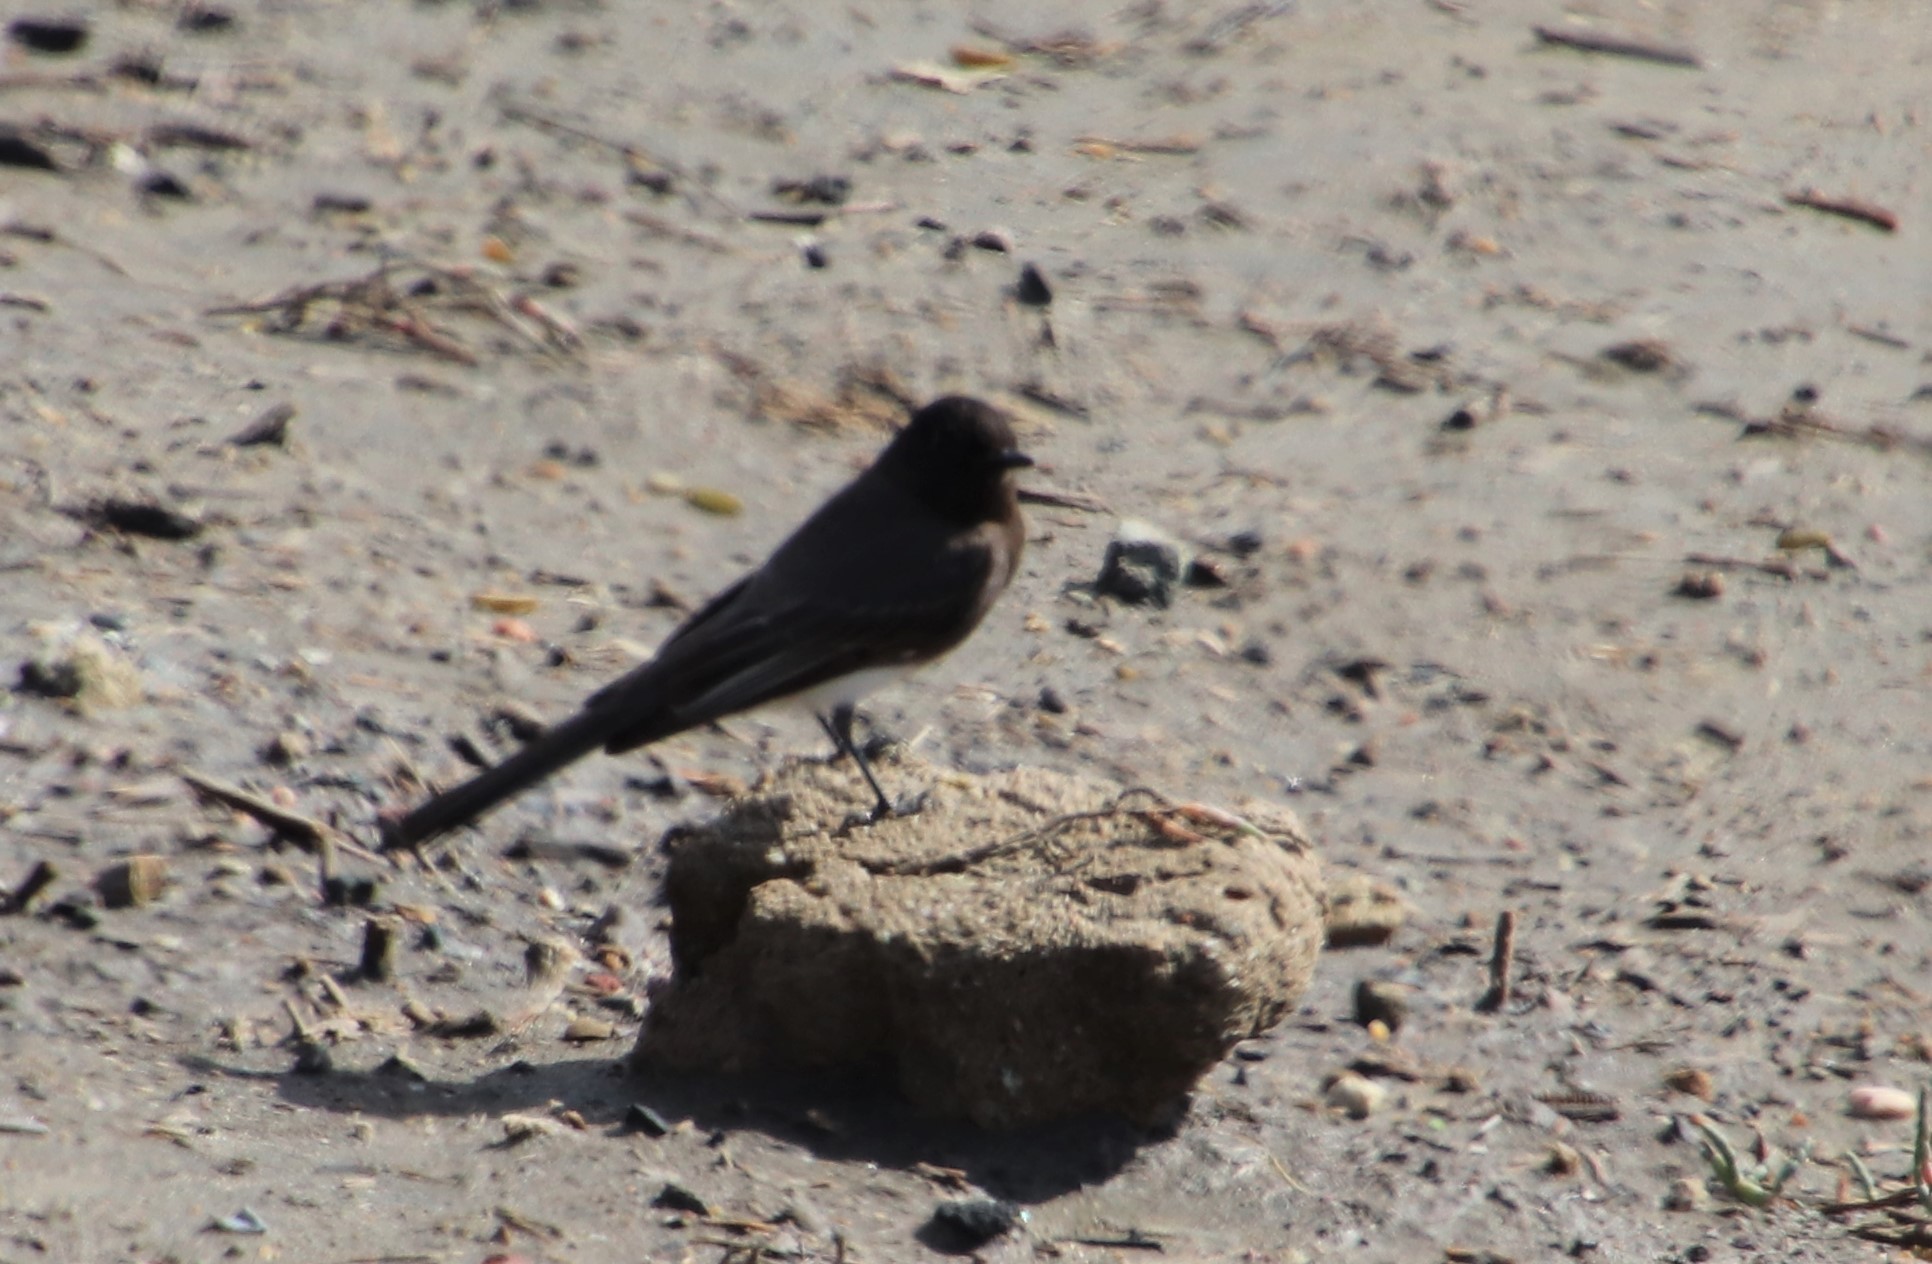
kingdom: Animalia
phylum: Chordata
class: Aves
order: Passeriformes
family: Tyrannidae
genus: Sayornis
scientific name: Sayornis nigricans
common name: Black phoebe
